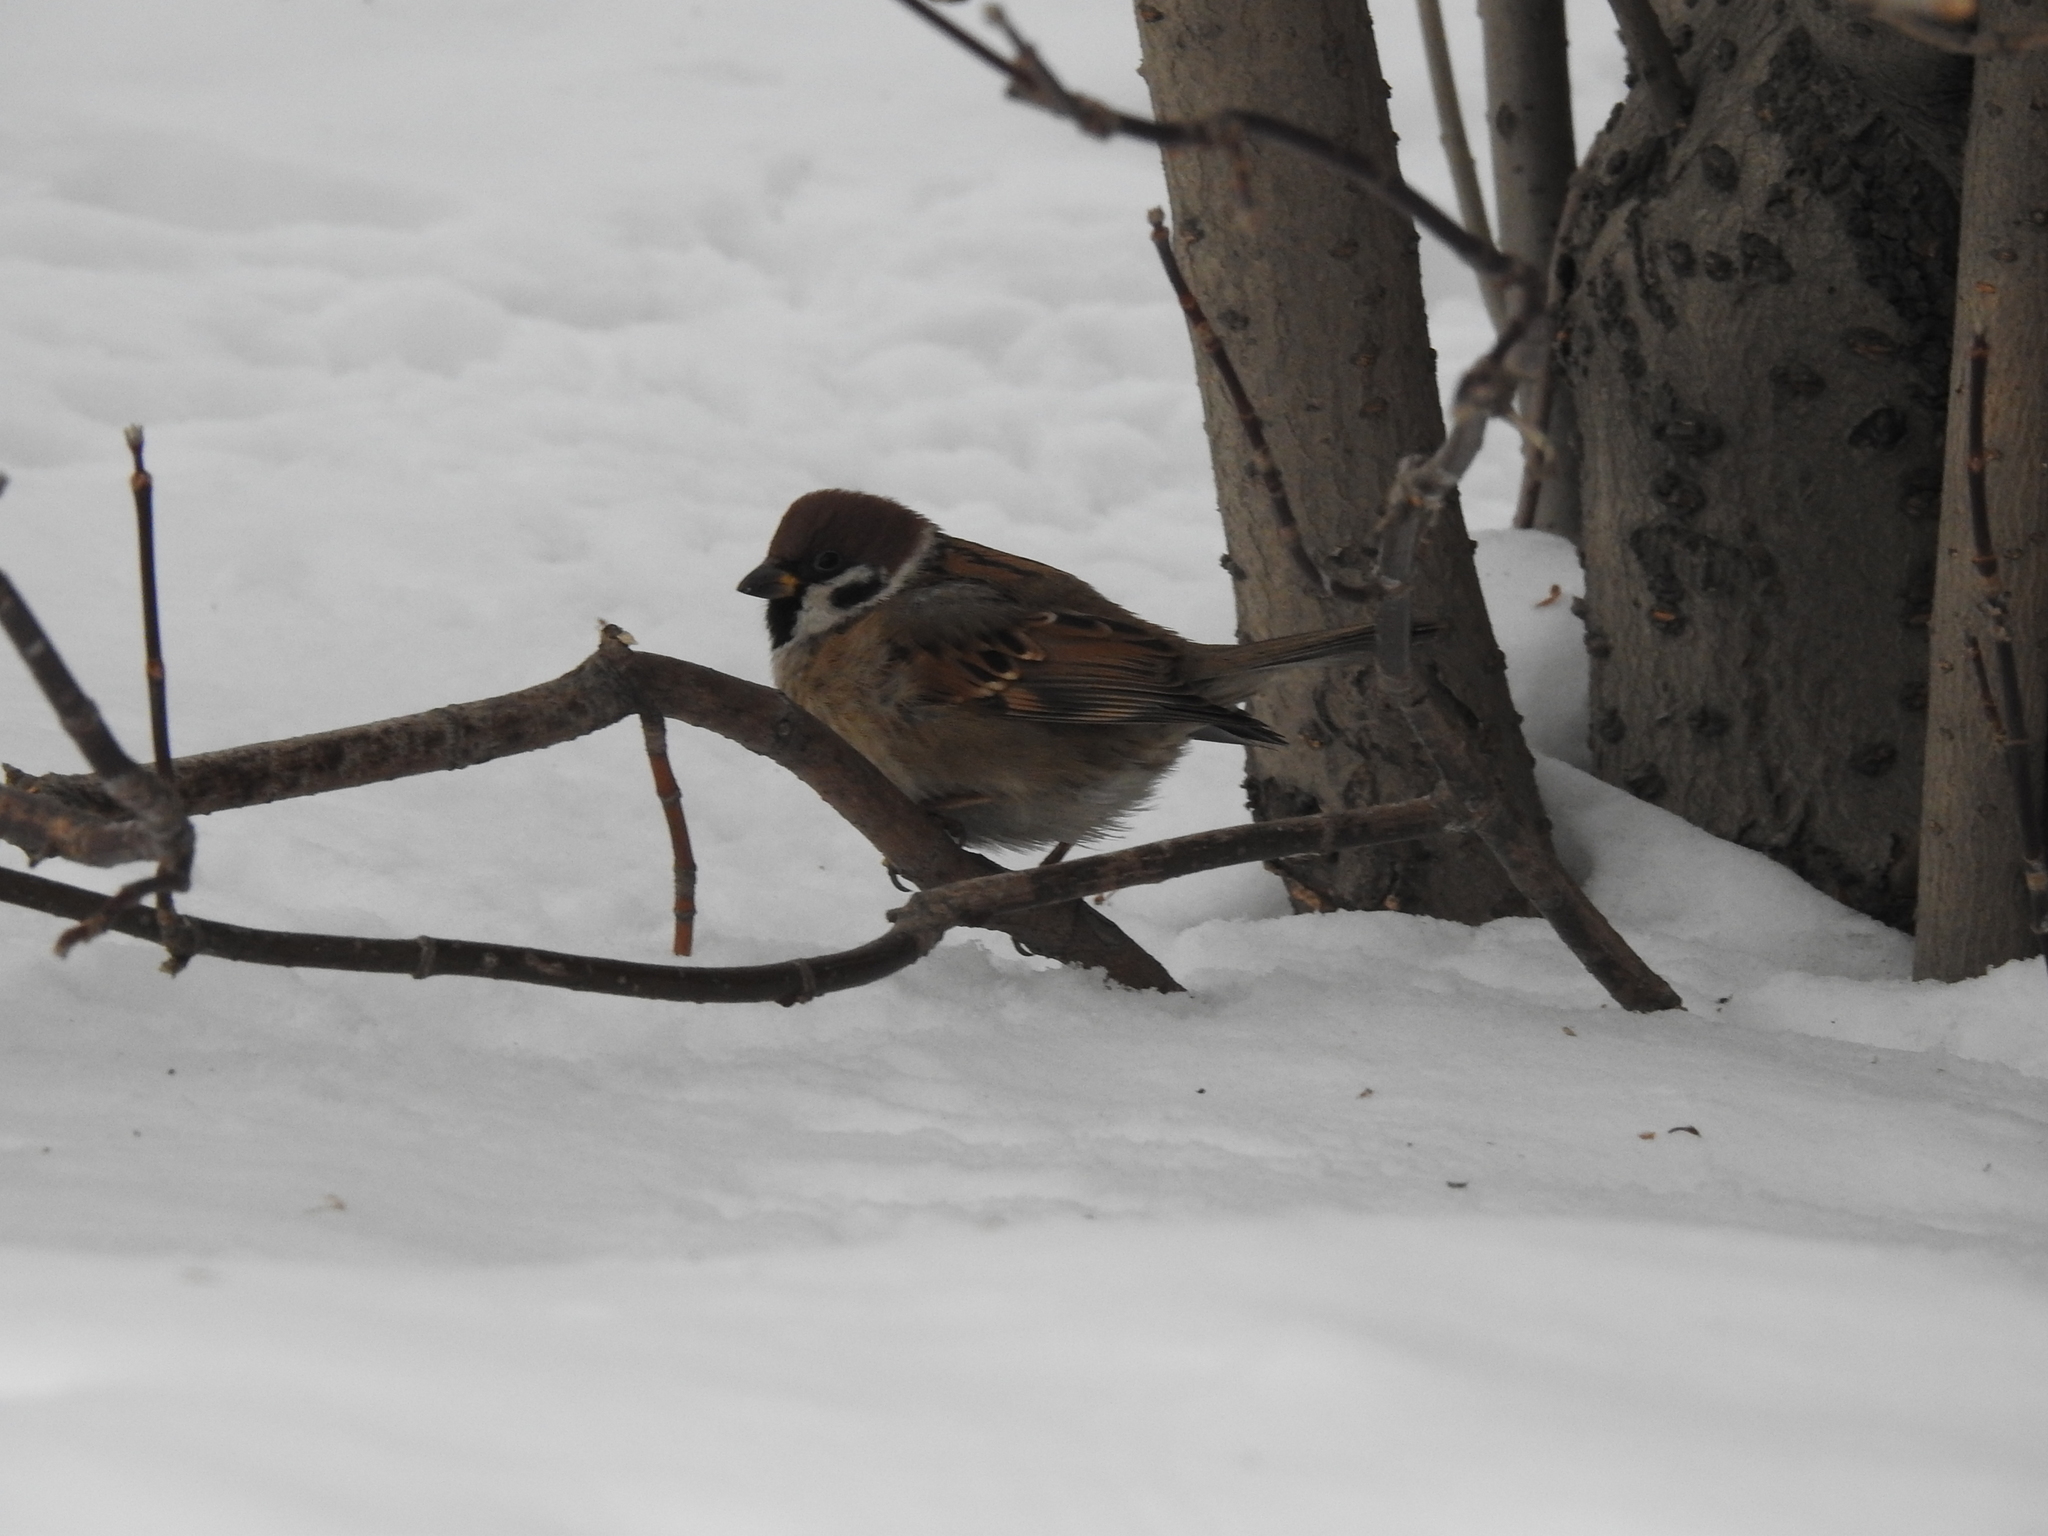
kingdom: Animalia
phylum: Chordata
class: Aves
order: Passeriformes
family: Passeridae
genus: Passer
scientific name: Passer montanus
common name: Eurasian tree sparrow
